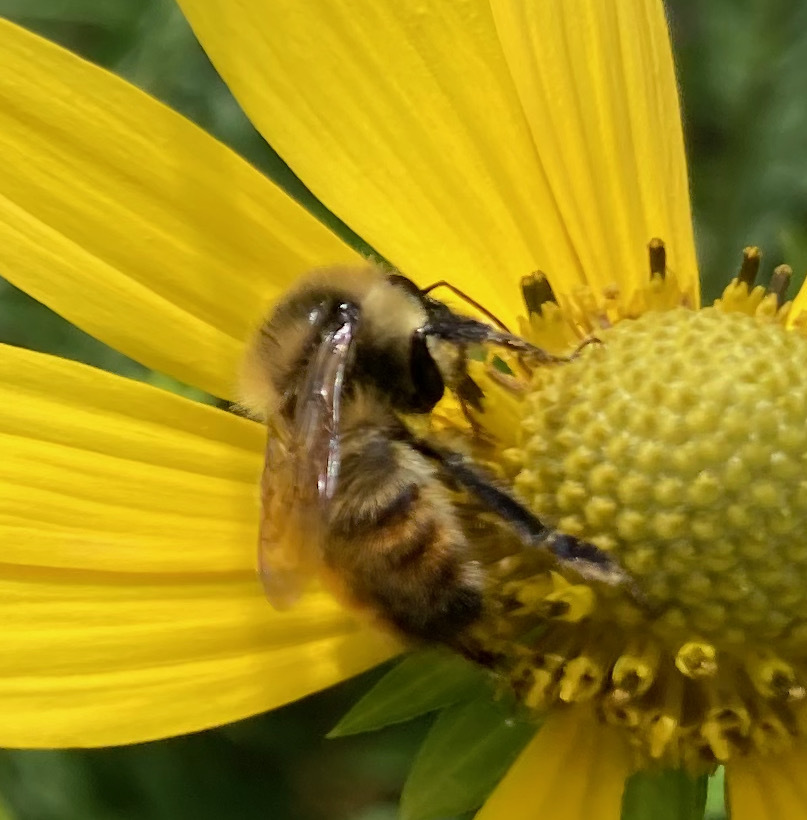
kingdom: Animalia
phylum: Arthropoda
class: Insecta
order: Hymenoptera
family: Apidae
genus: Bombus
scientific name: Bombus rufocinctus
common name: Red-belted bumble bee
